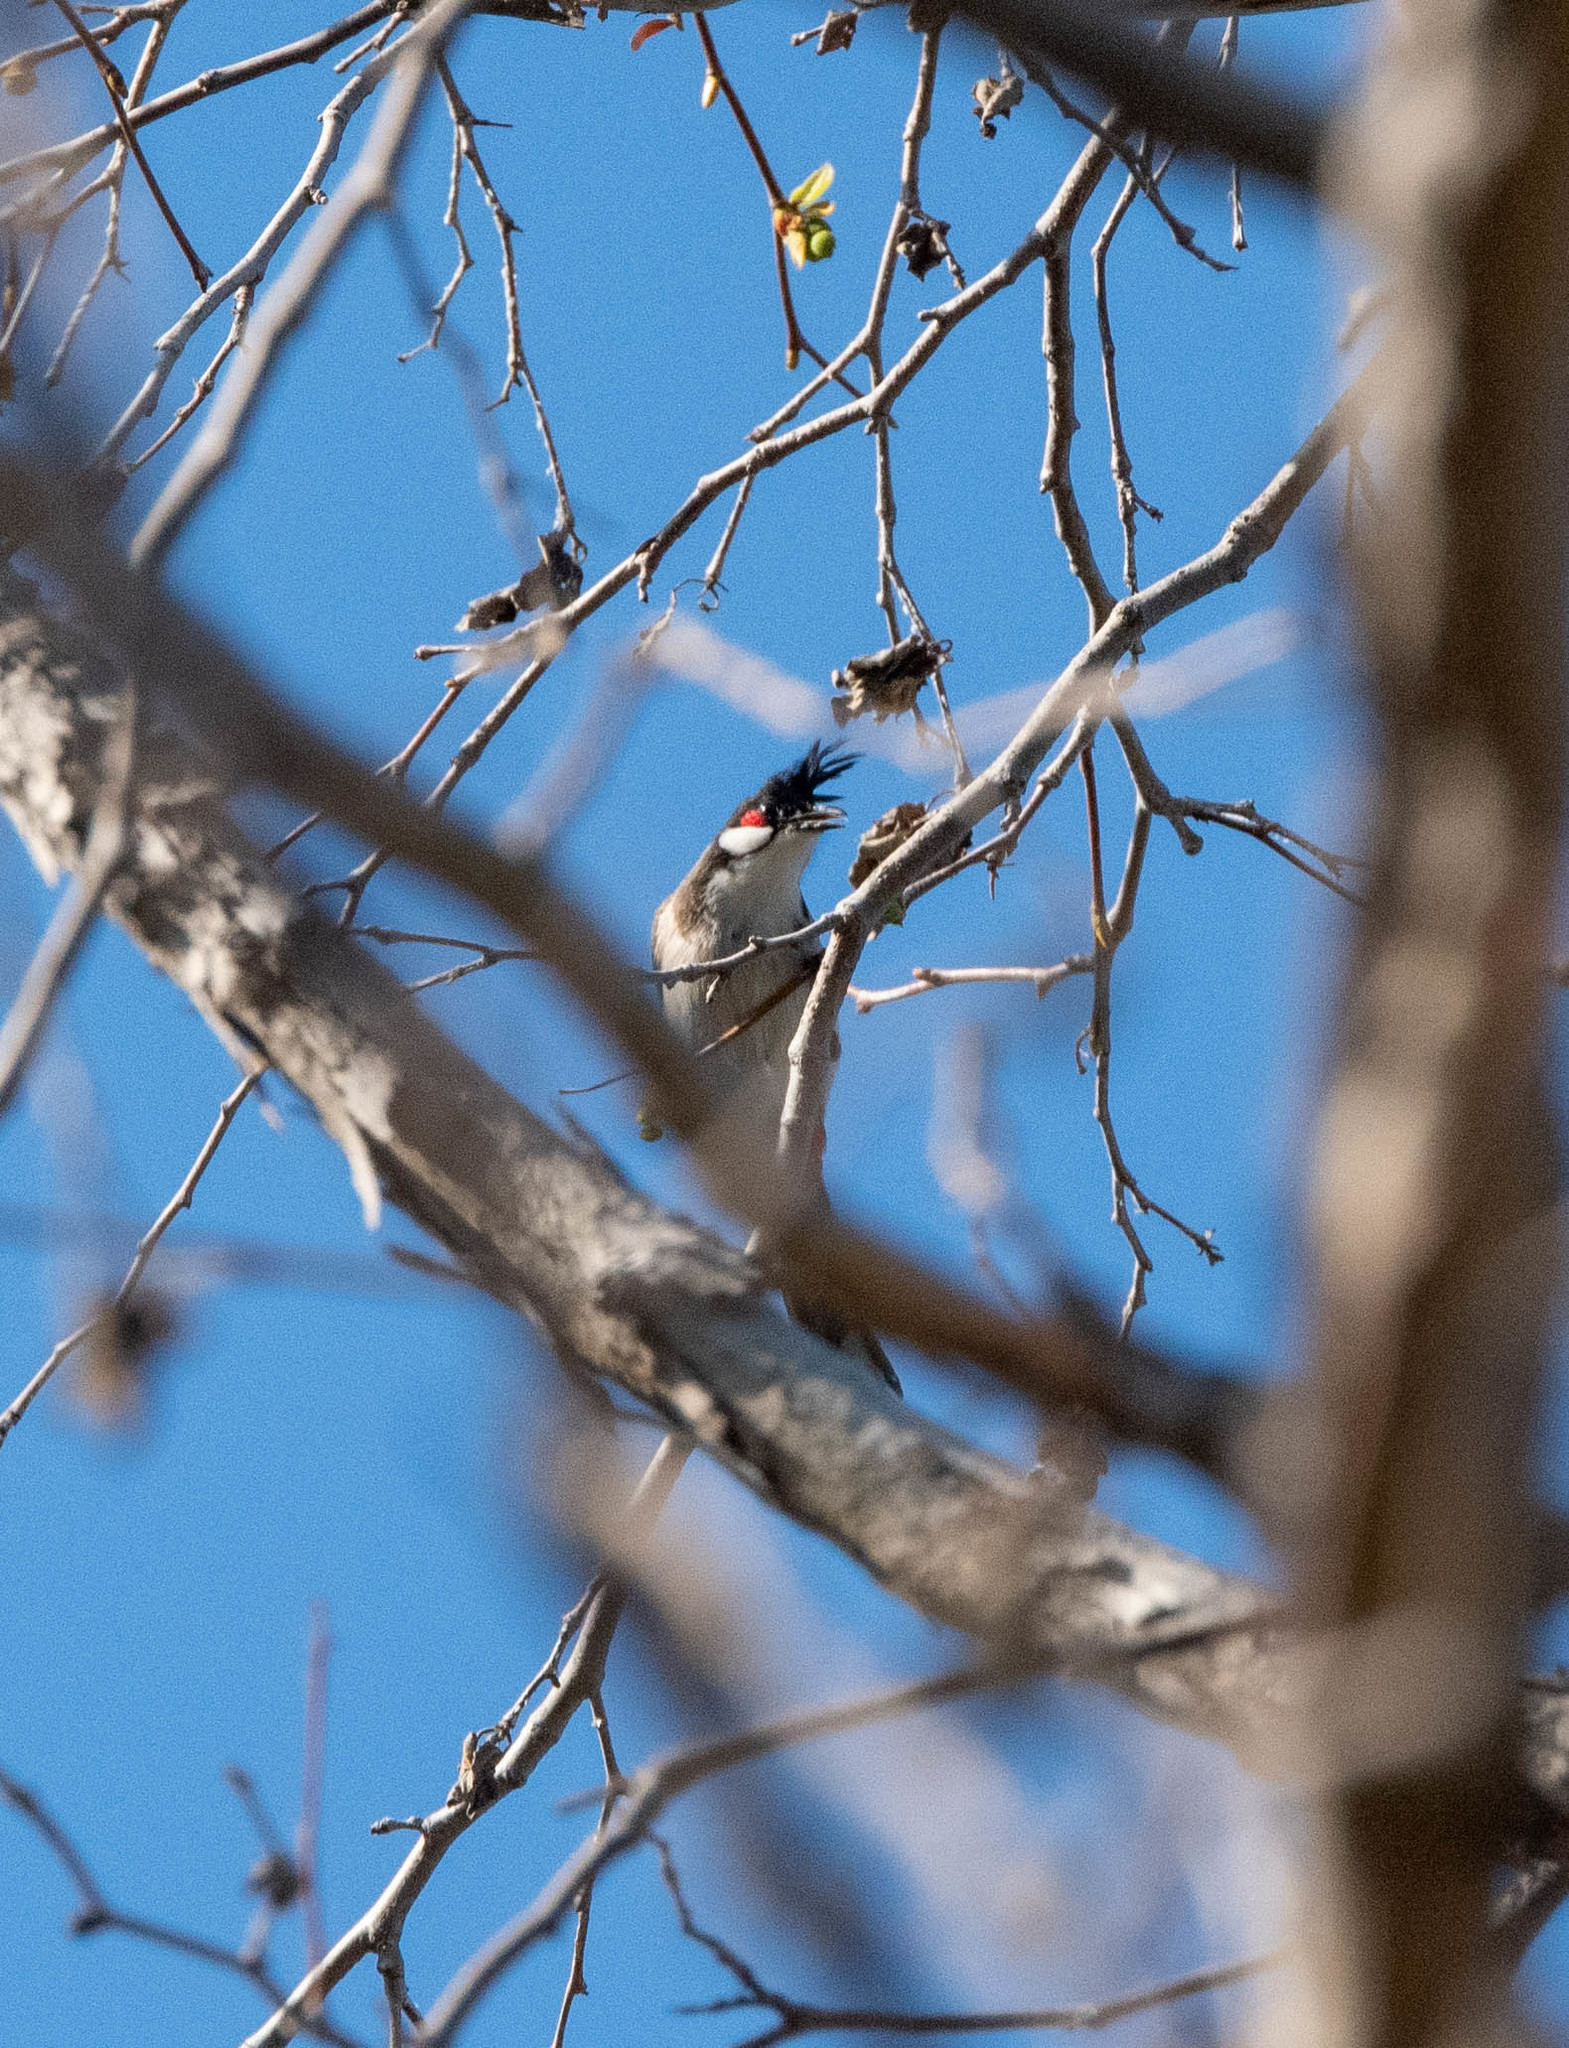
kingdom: Animalia
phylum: Chordata
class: Aves
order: Passeriformes
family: Pycnonotidae
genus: Pycnonotus
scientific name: Pycnonotus jocosus
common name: Red-whiskered bulbul
